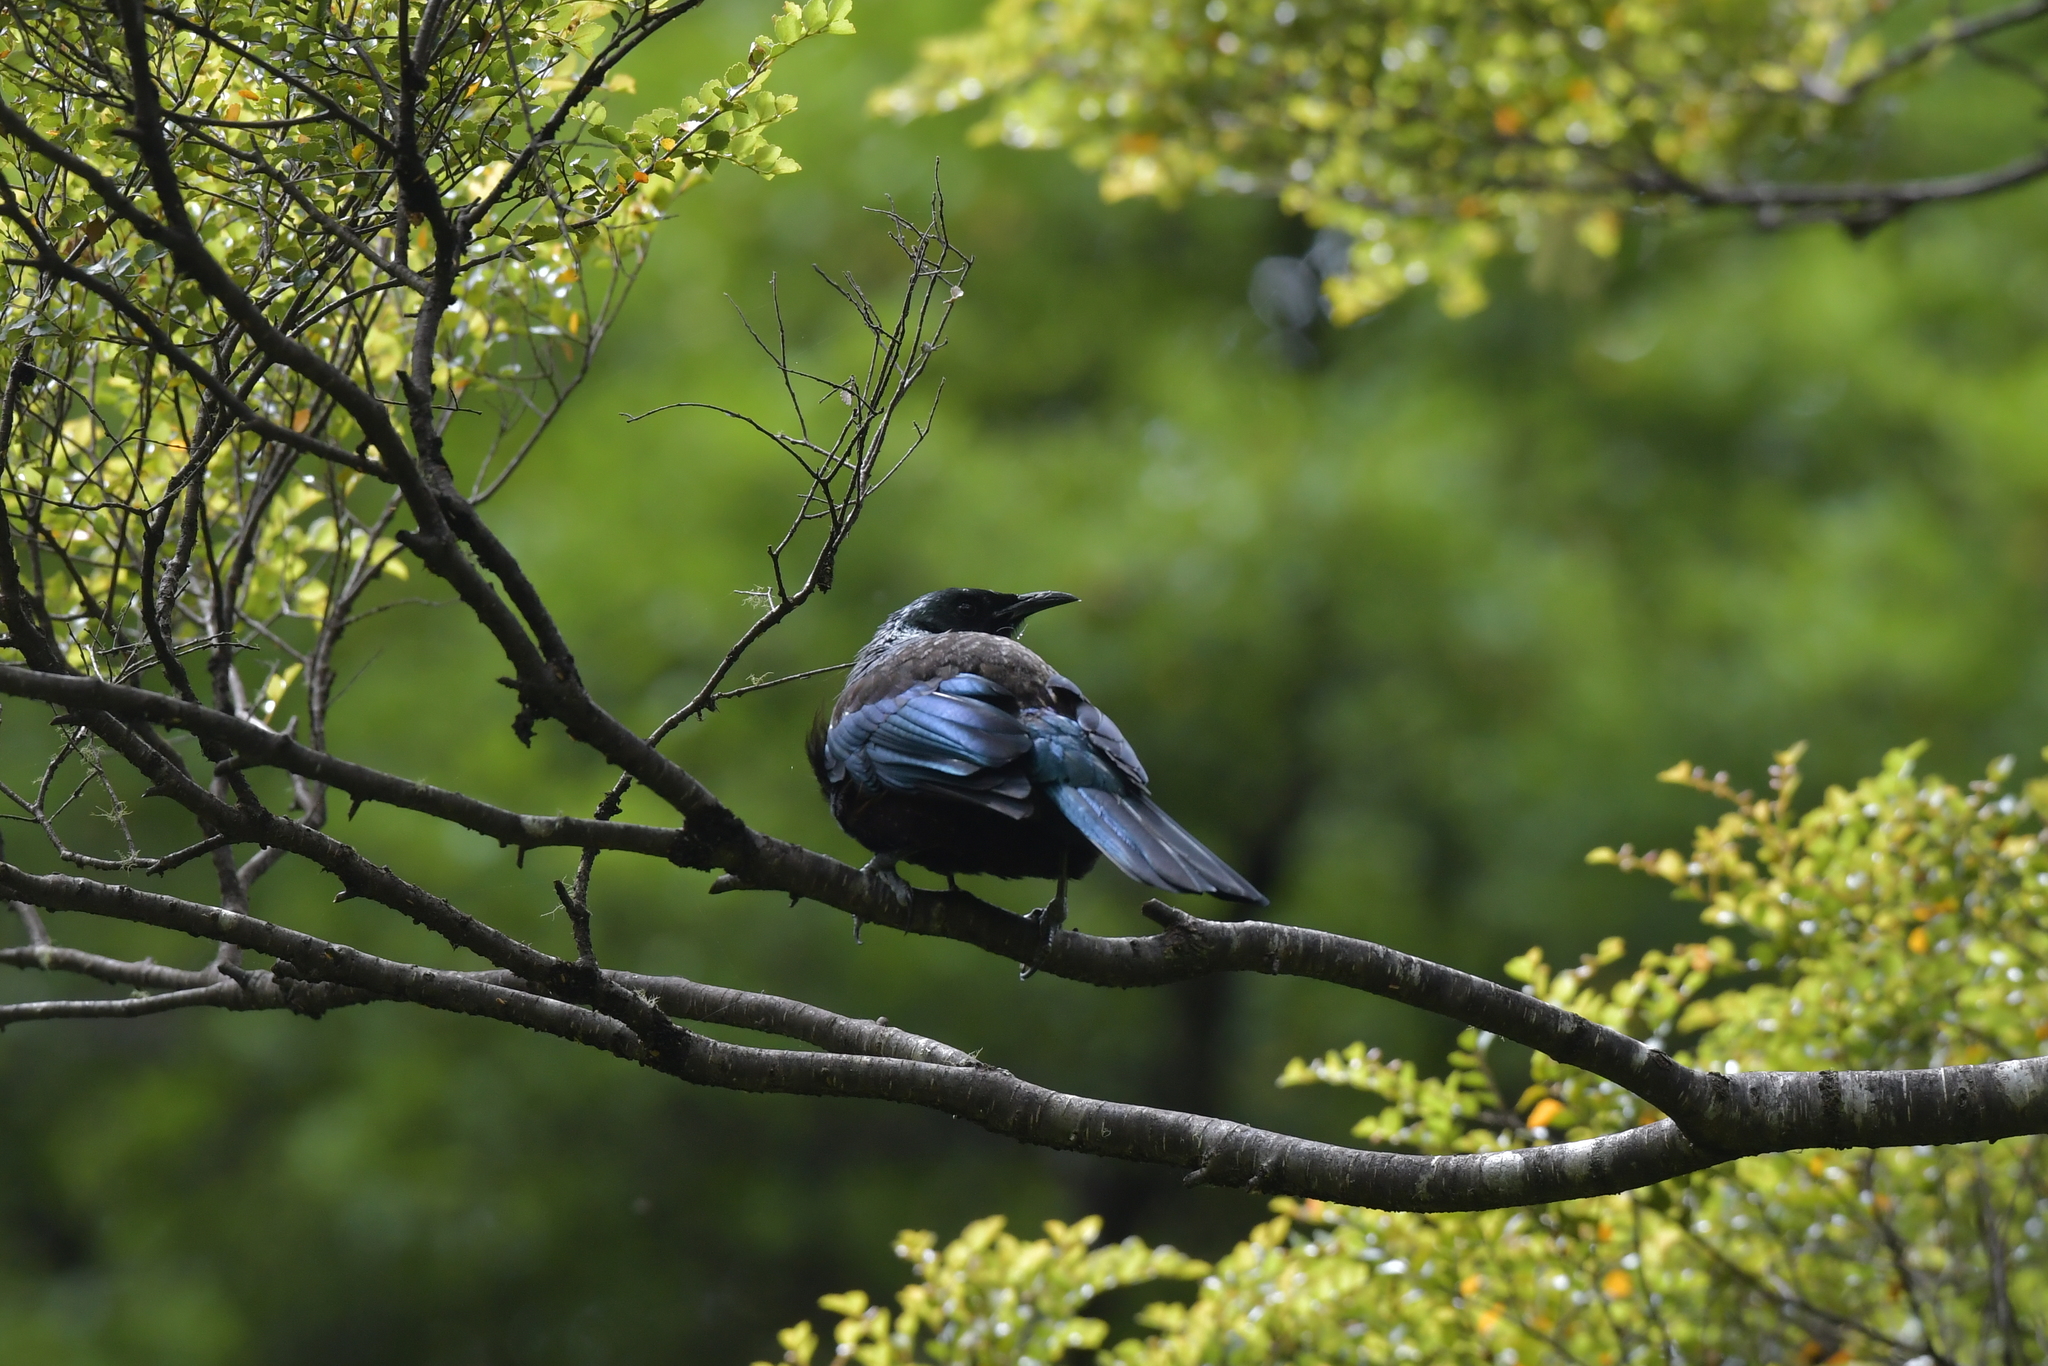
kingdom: Animalia
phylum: Chordata
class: Aves
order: Passeriformes
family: Meliphagidae
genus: Prosthemadera
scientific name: Prosthemadera novaeseelandiae
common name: Tui
